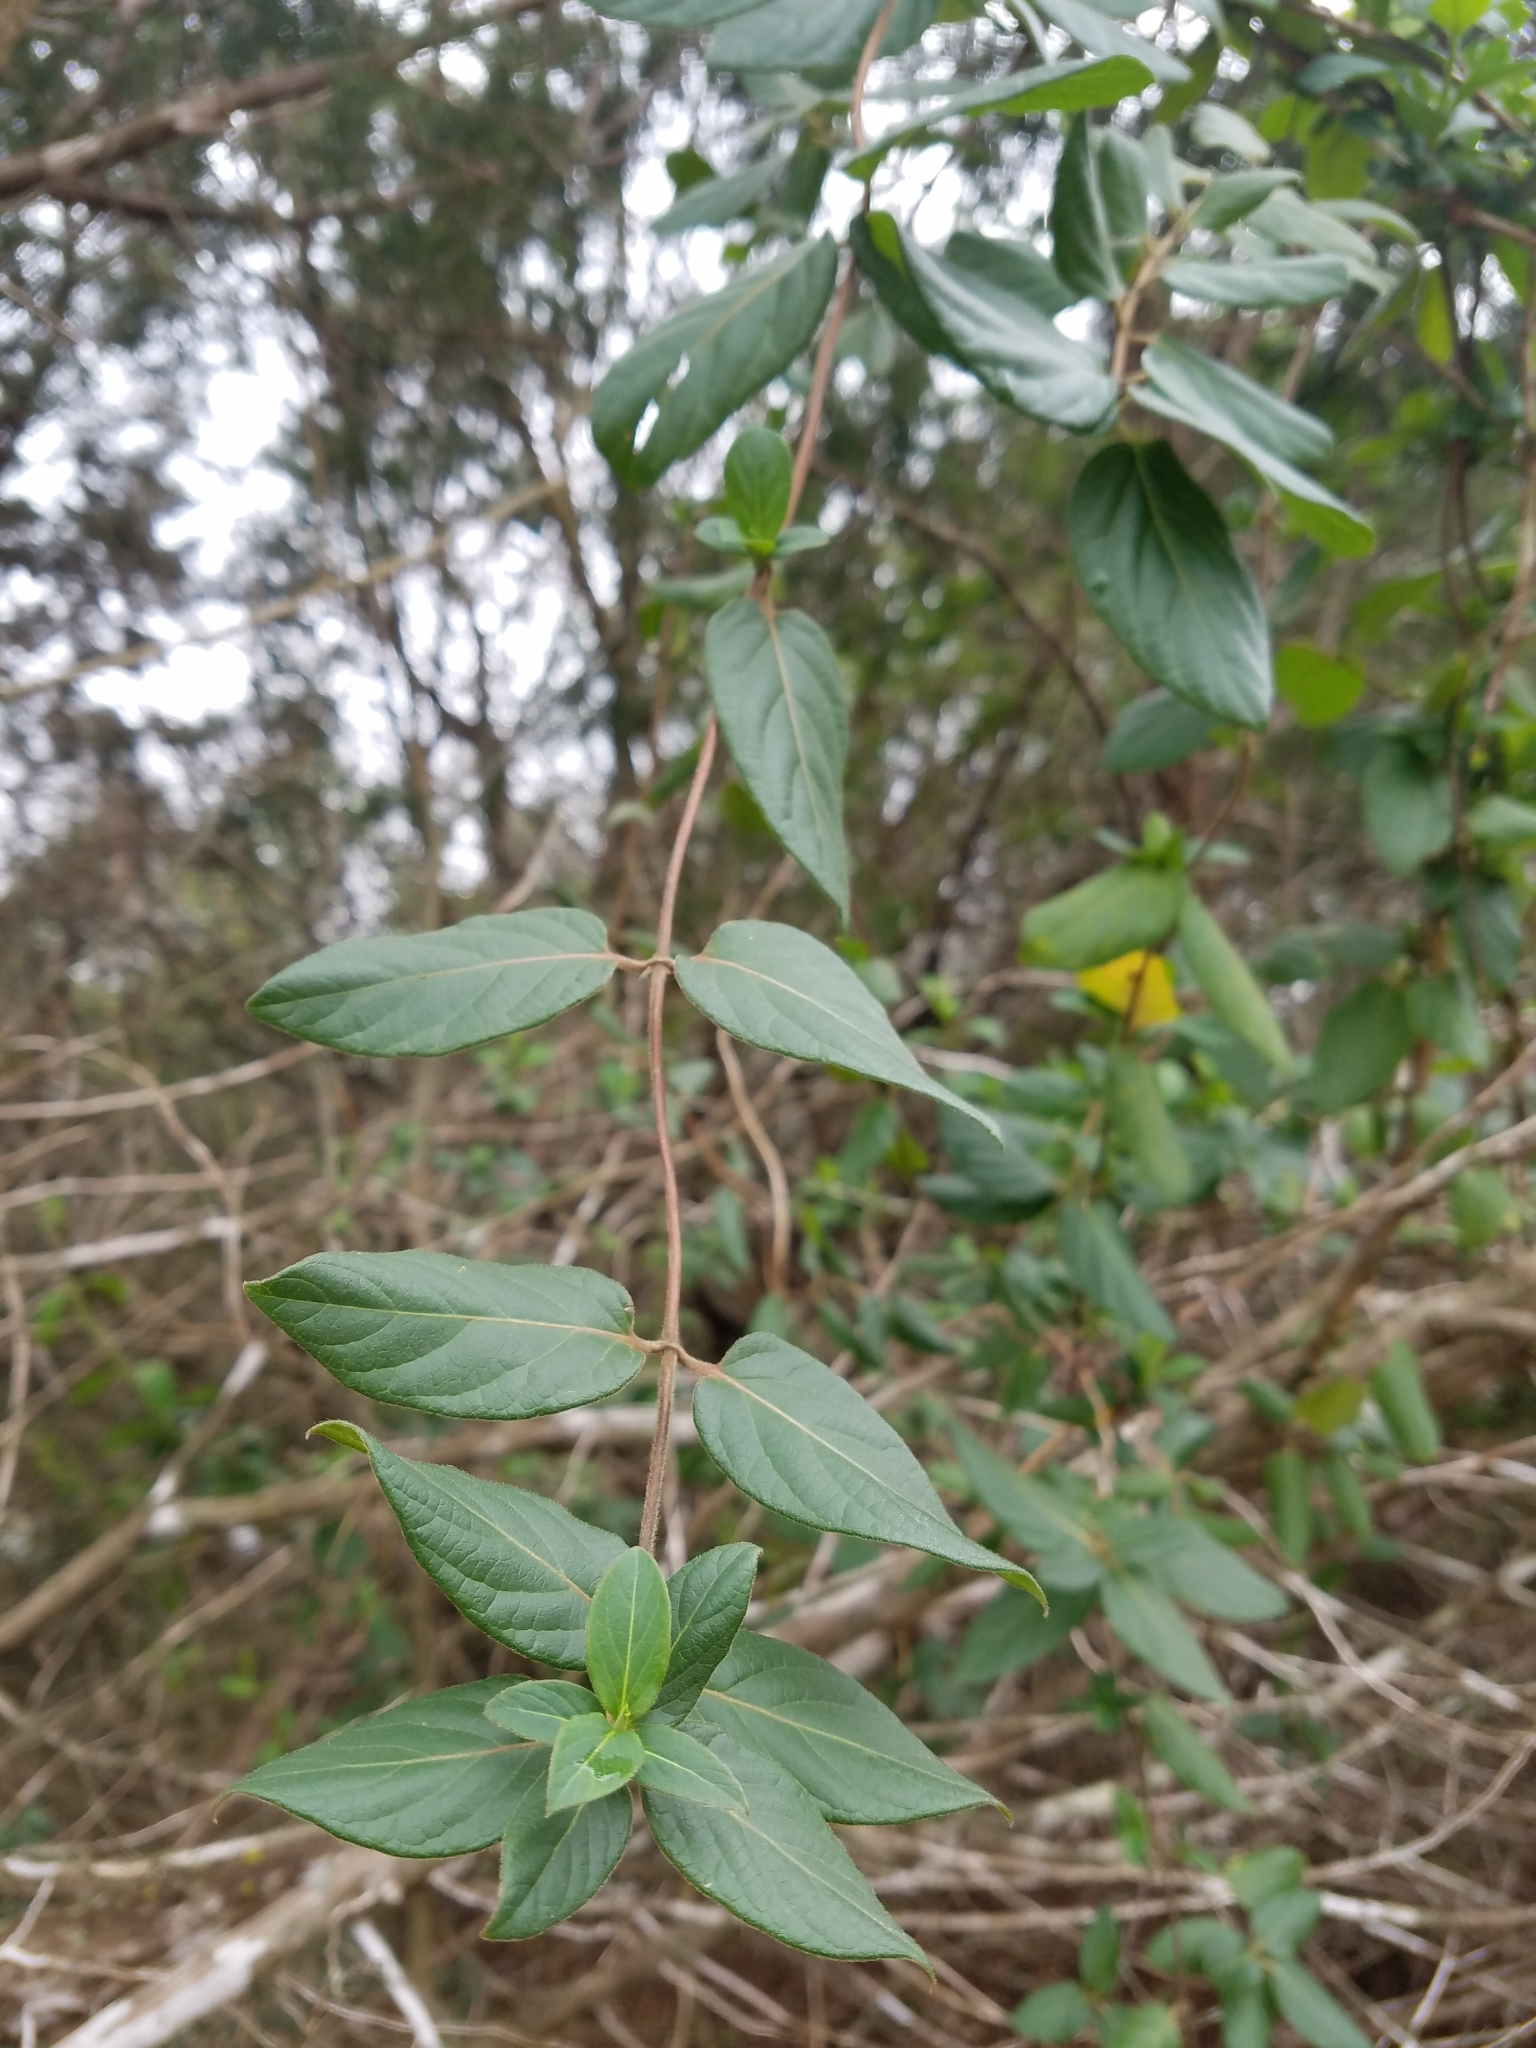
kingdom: Plantae
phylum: Tracheophyta
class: Magnoliopsida
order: Dipsacales
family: Caprifoliaceae
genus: Lonicera
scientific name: Lonicera japonica
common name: Japanese honeysuckle
